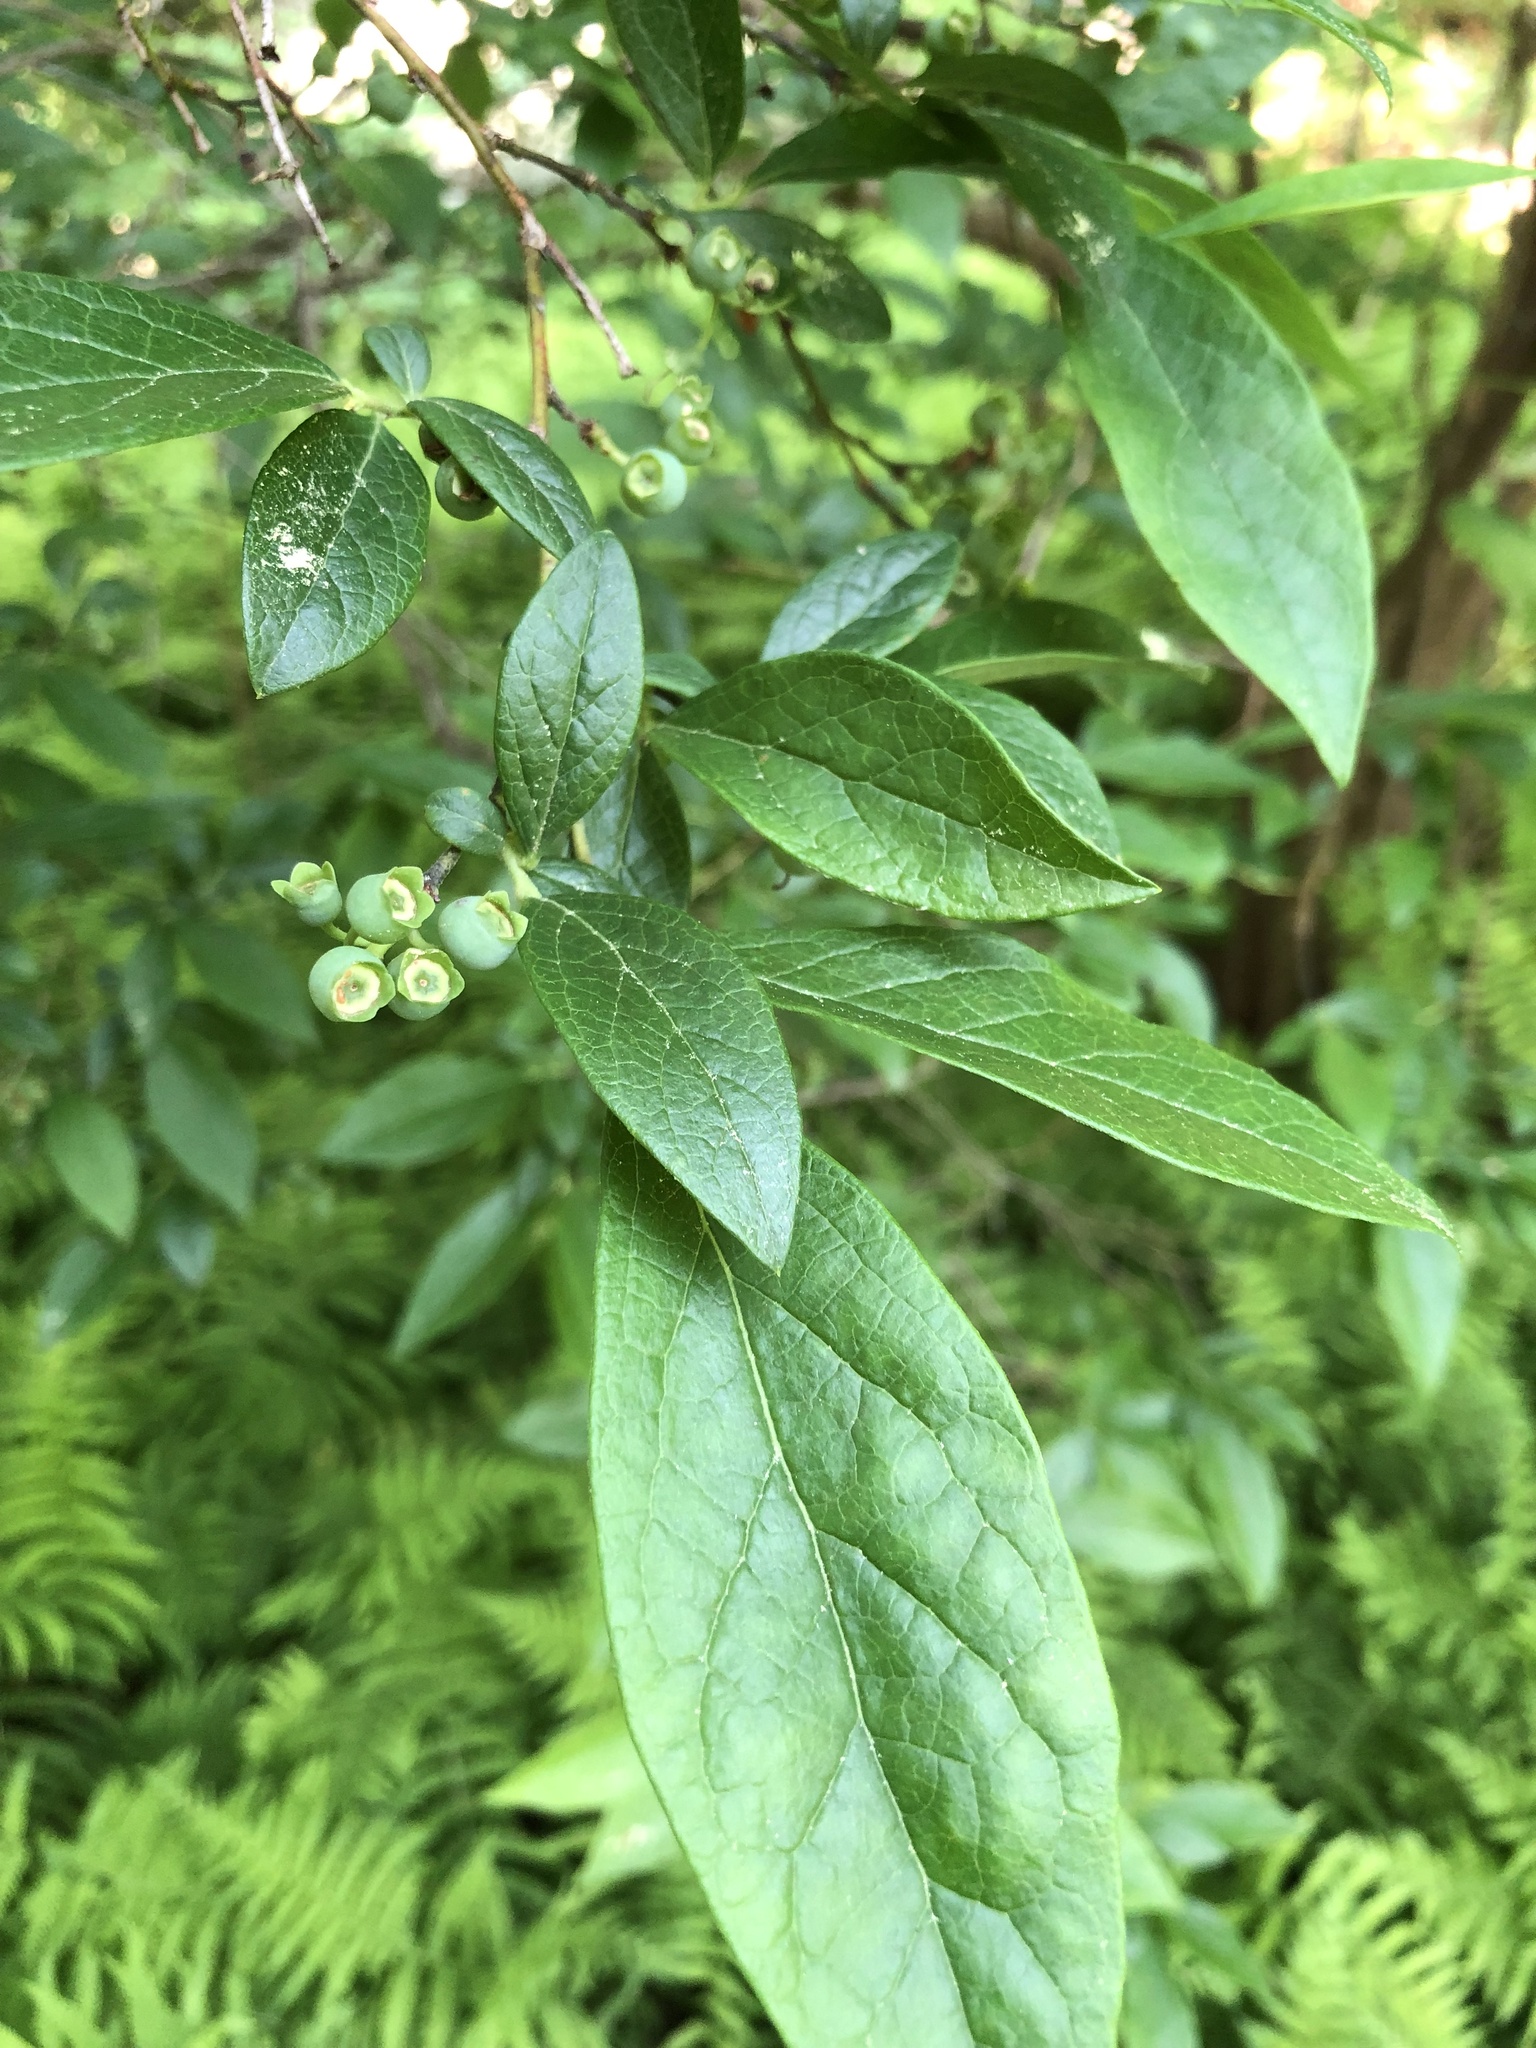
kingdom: Plantae
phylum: Tracheophyta
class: Magnoliopsida
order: Ericales
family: Ericaceae
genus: Vaccinium
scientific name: Vaccinium corymbosum
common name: Blueberry
